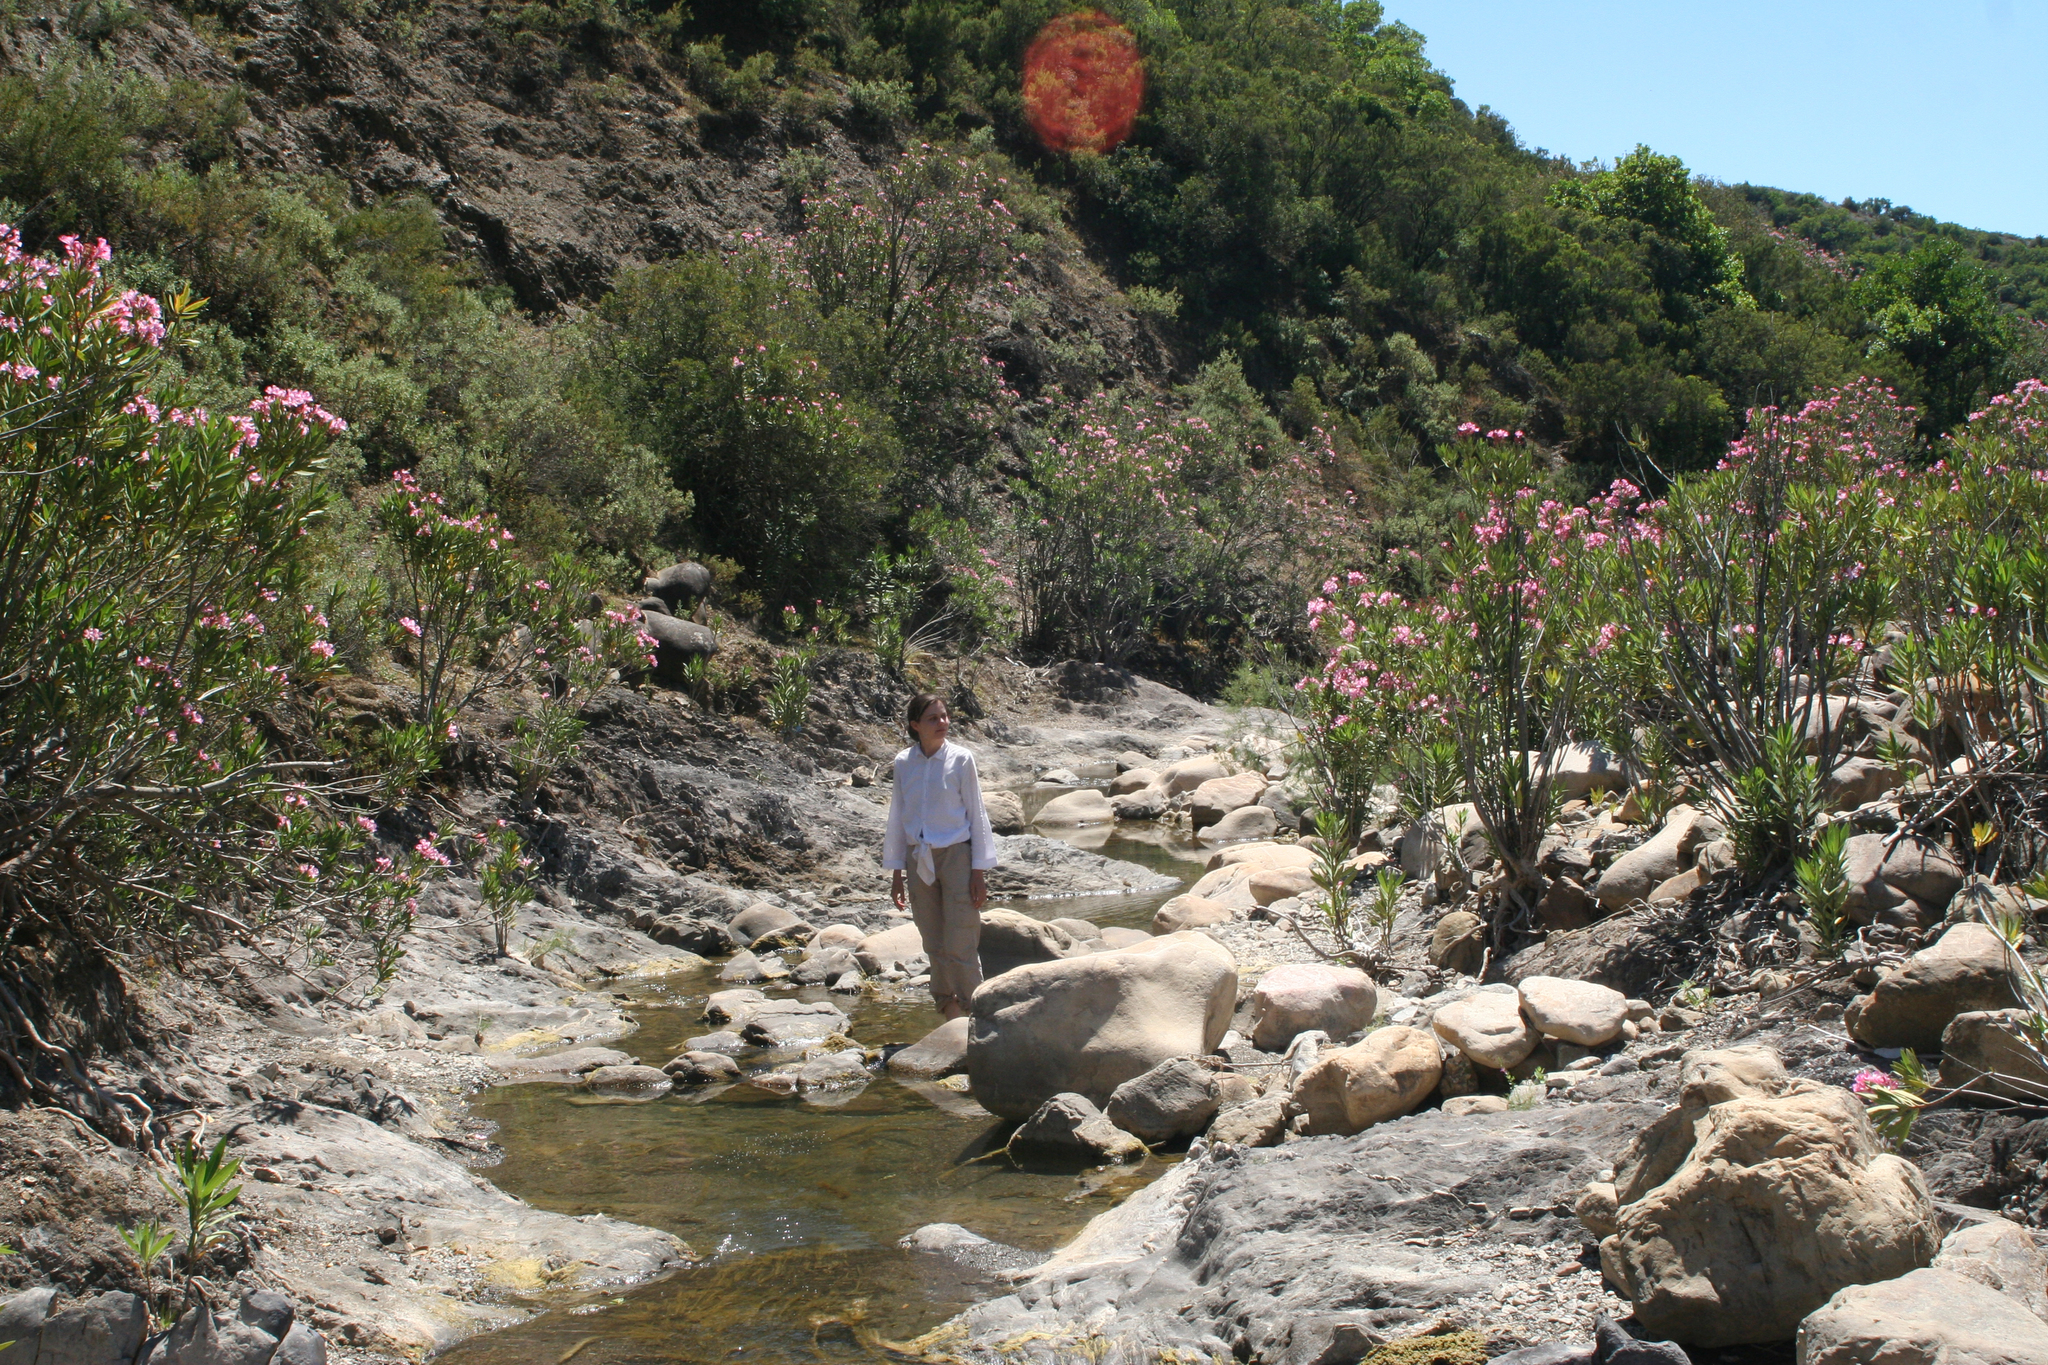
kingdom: Plantae
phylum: Tracheophyta
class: Magnoliopsida
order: Gentianales
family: Apocynaceae
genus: Nerium
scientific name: Nerium oleander
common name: Oleander
